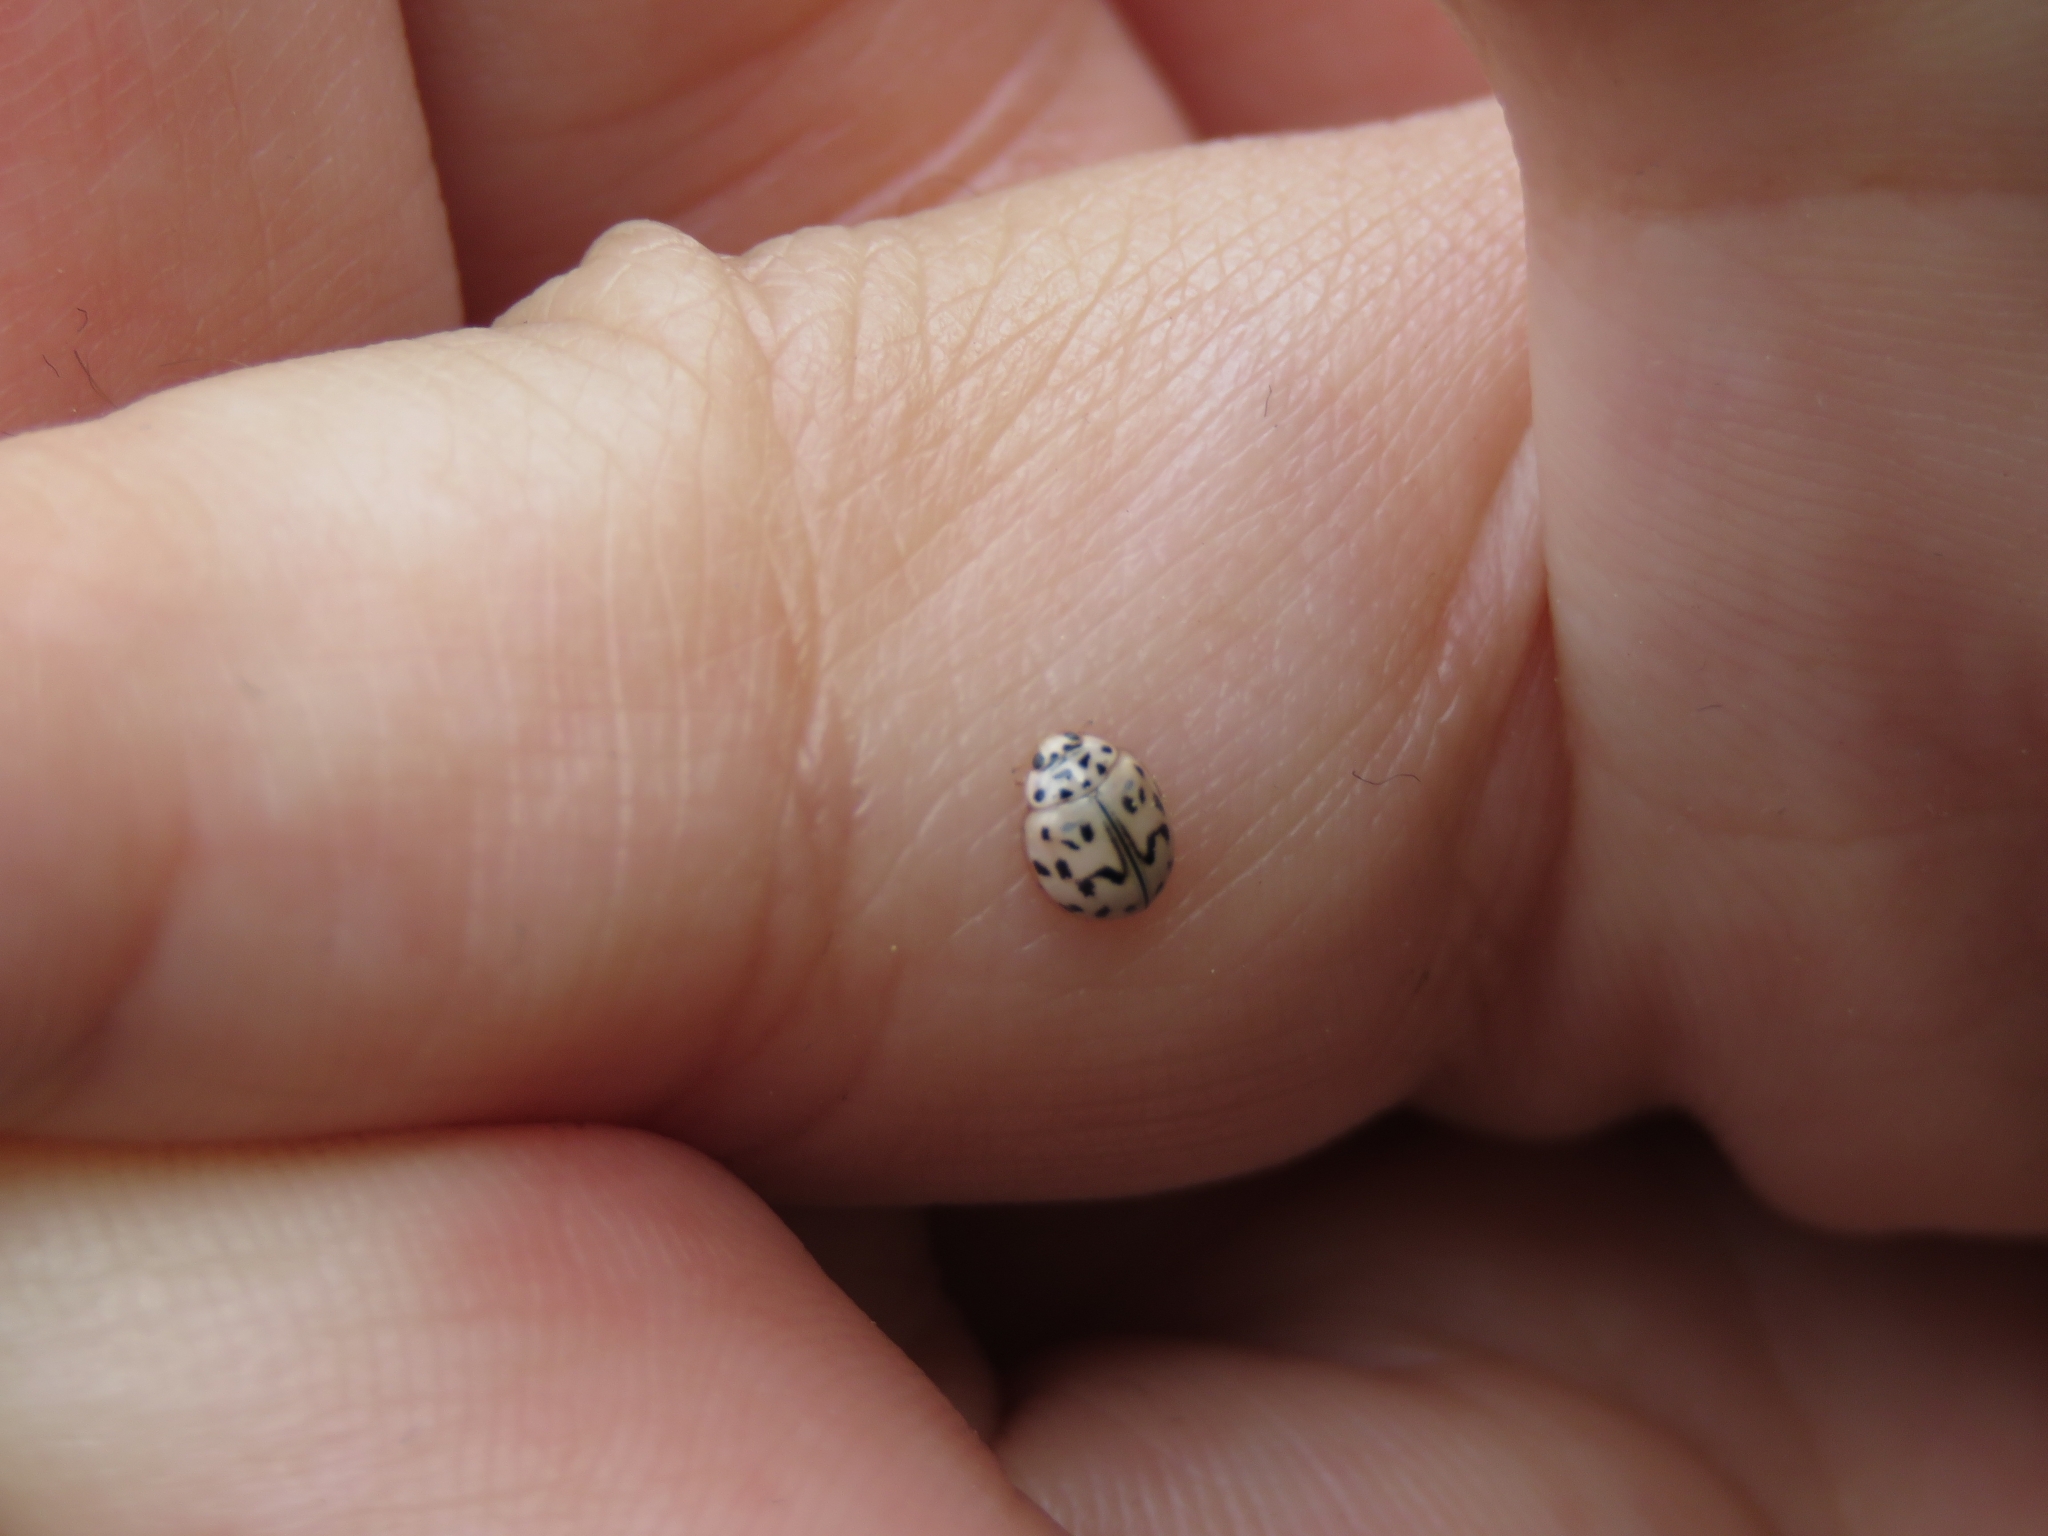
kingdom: Animalia
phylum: Arthropoda
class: Insecta
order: Coleoptera
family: Coccinellidae
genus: Oenopia
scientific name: Oenopia doublieri
